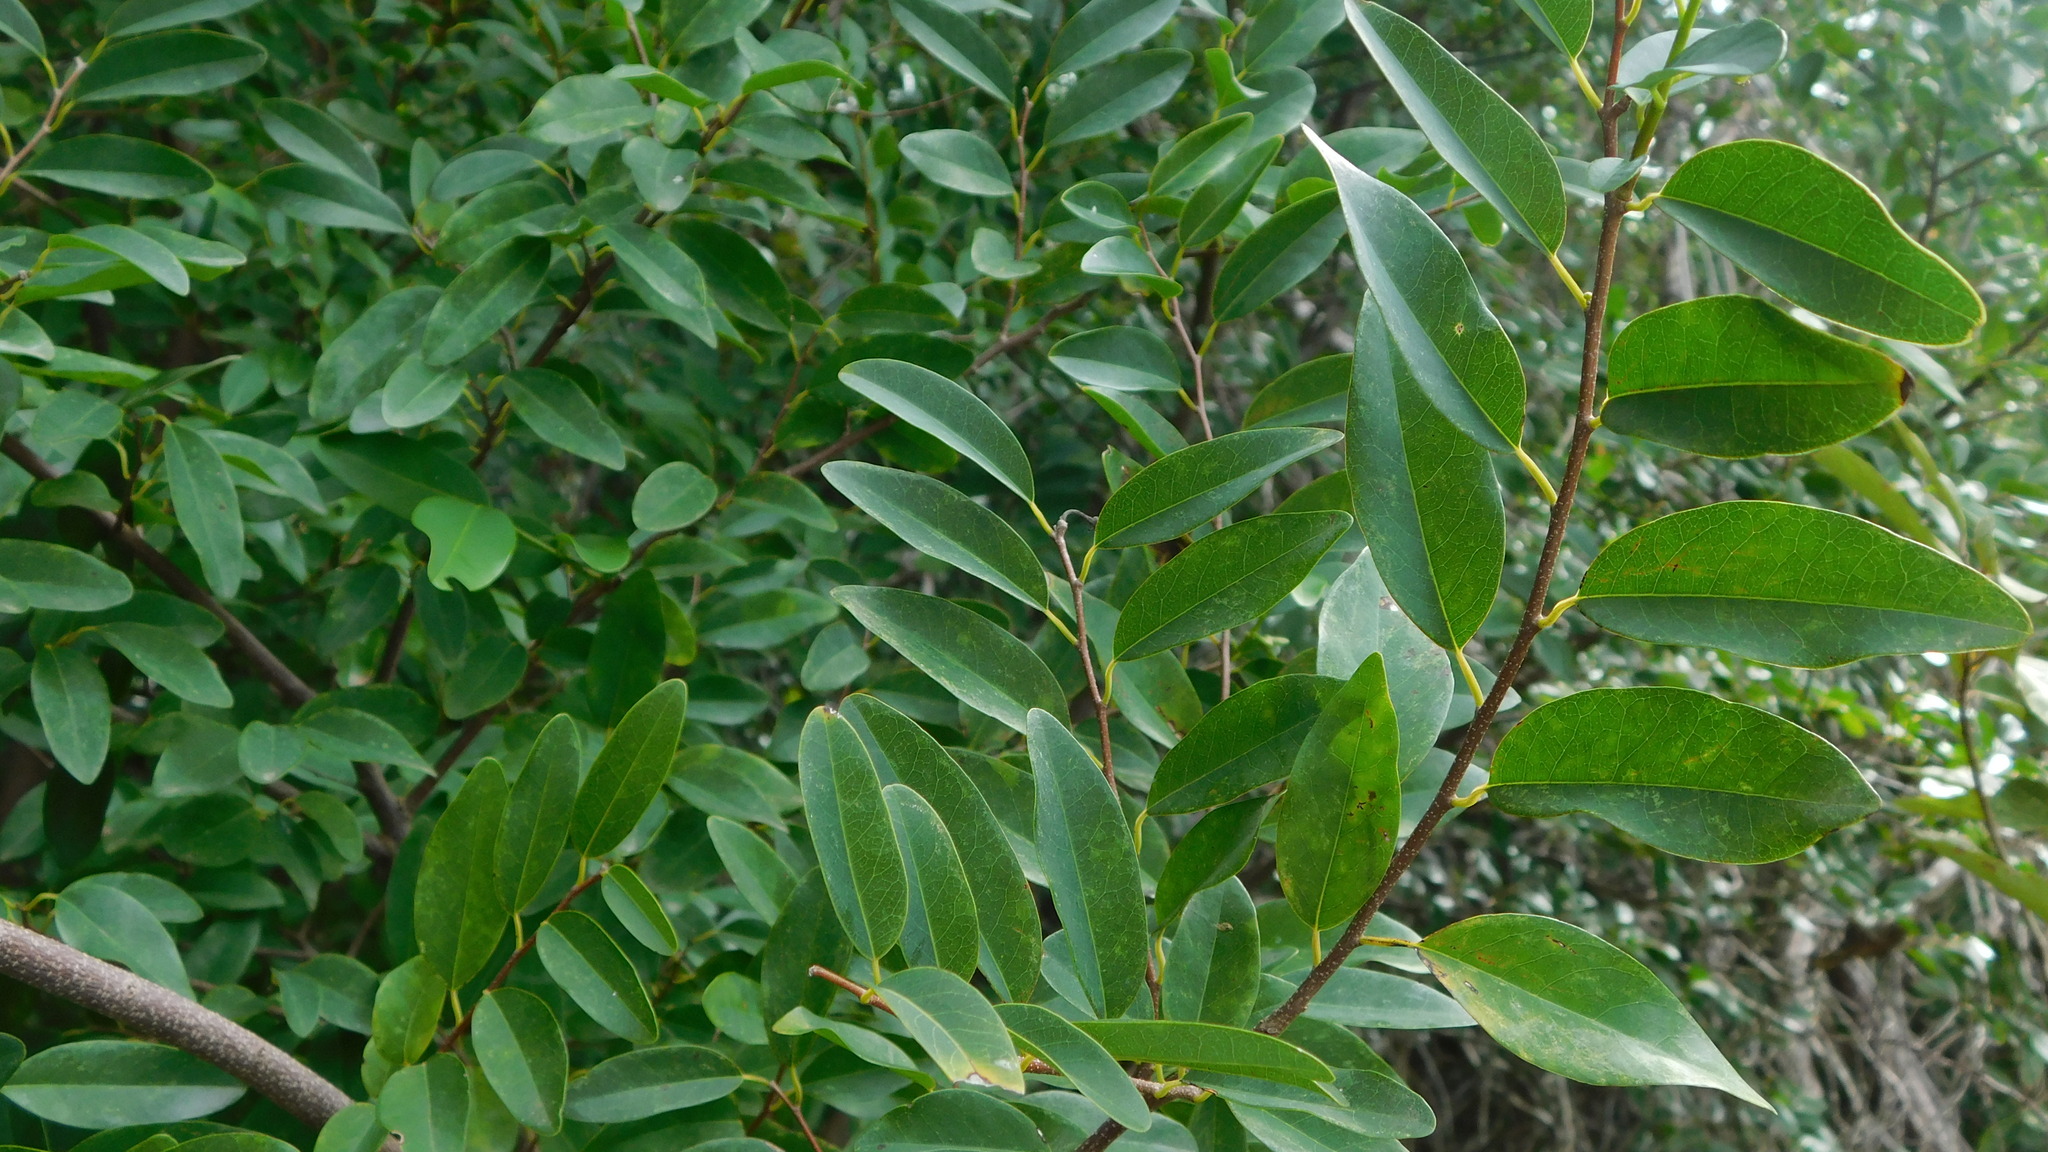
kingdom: Plantae
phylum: Tracheophyta
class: Magnoliopsida
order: Magnoliales
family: Annonaceae
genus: Annona
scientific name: Annona emarginata
